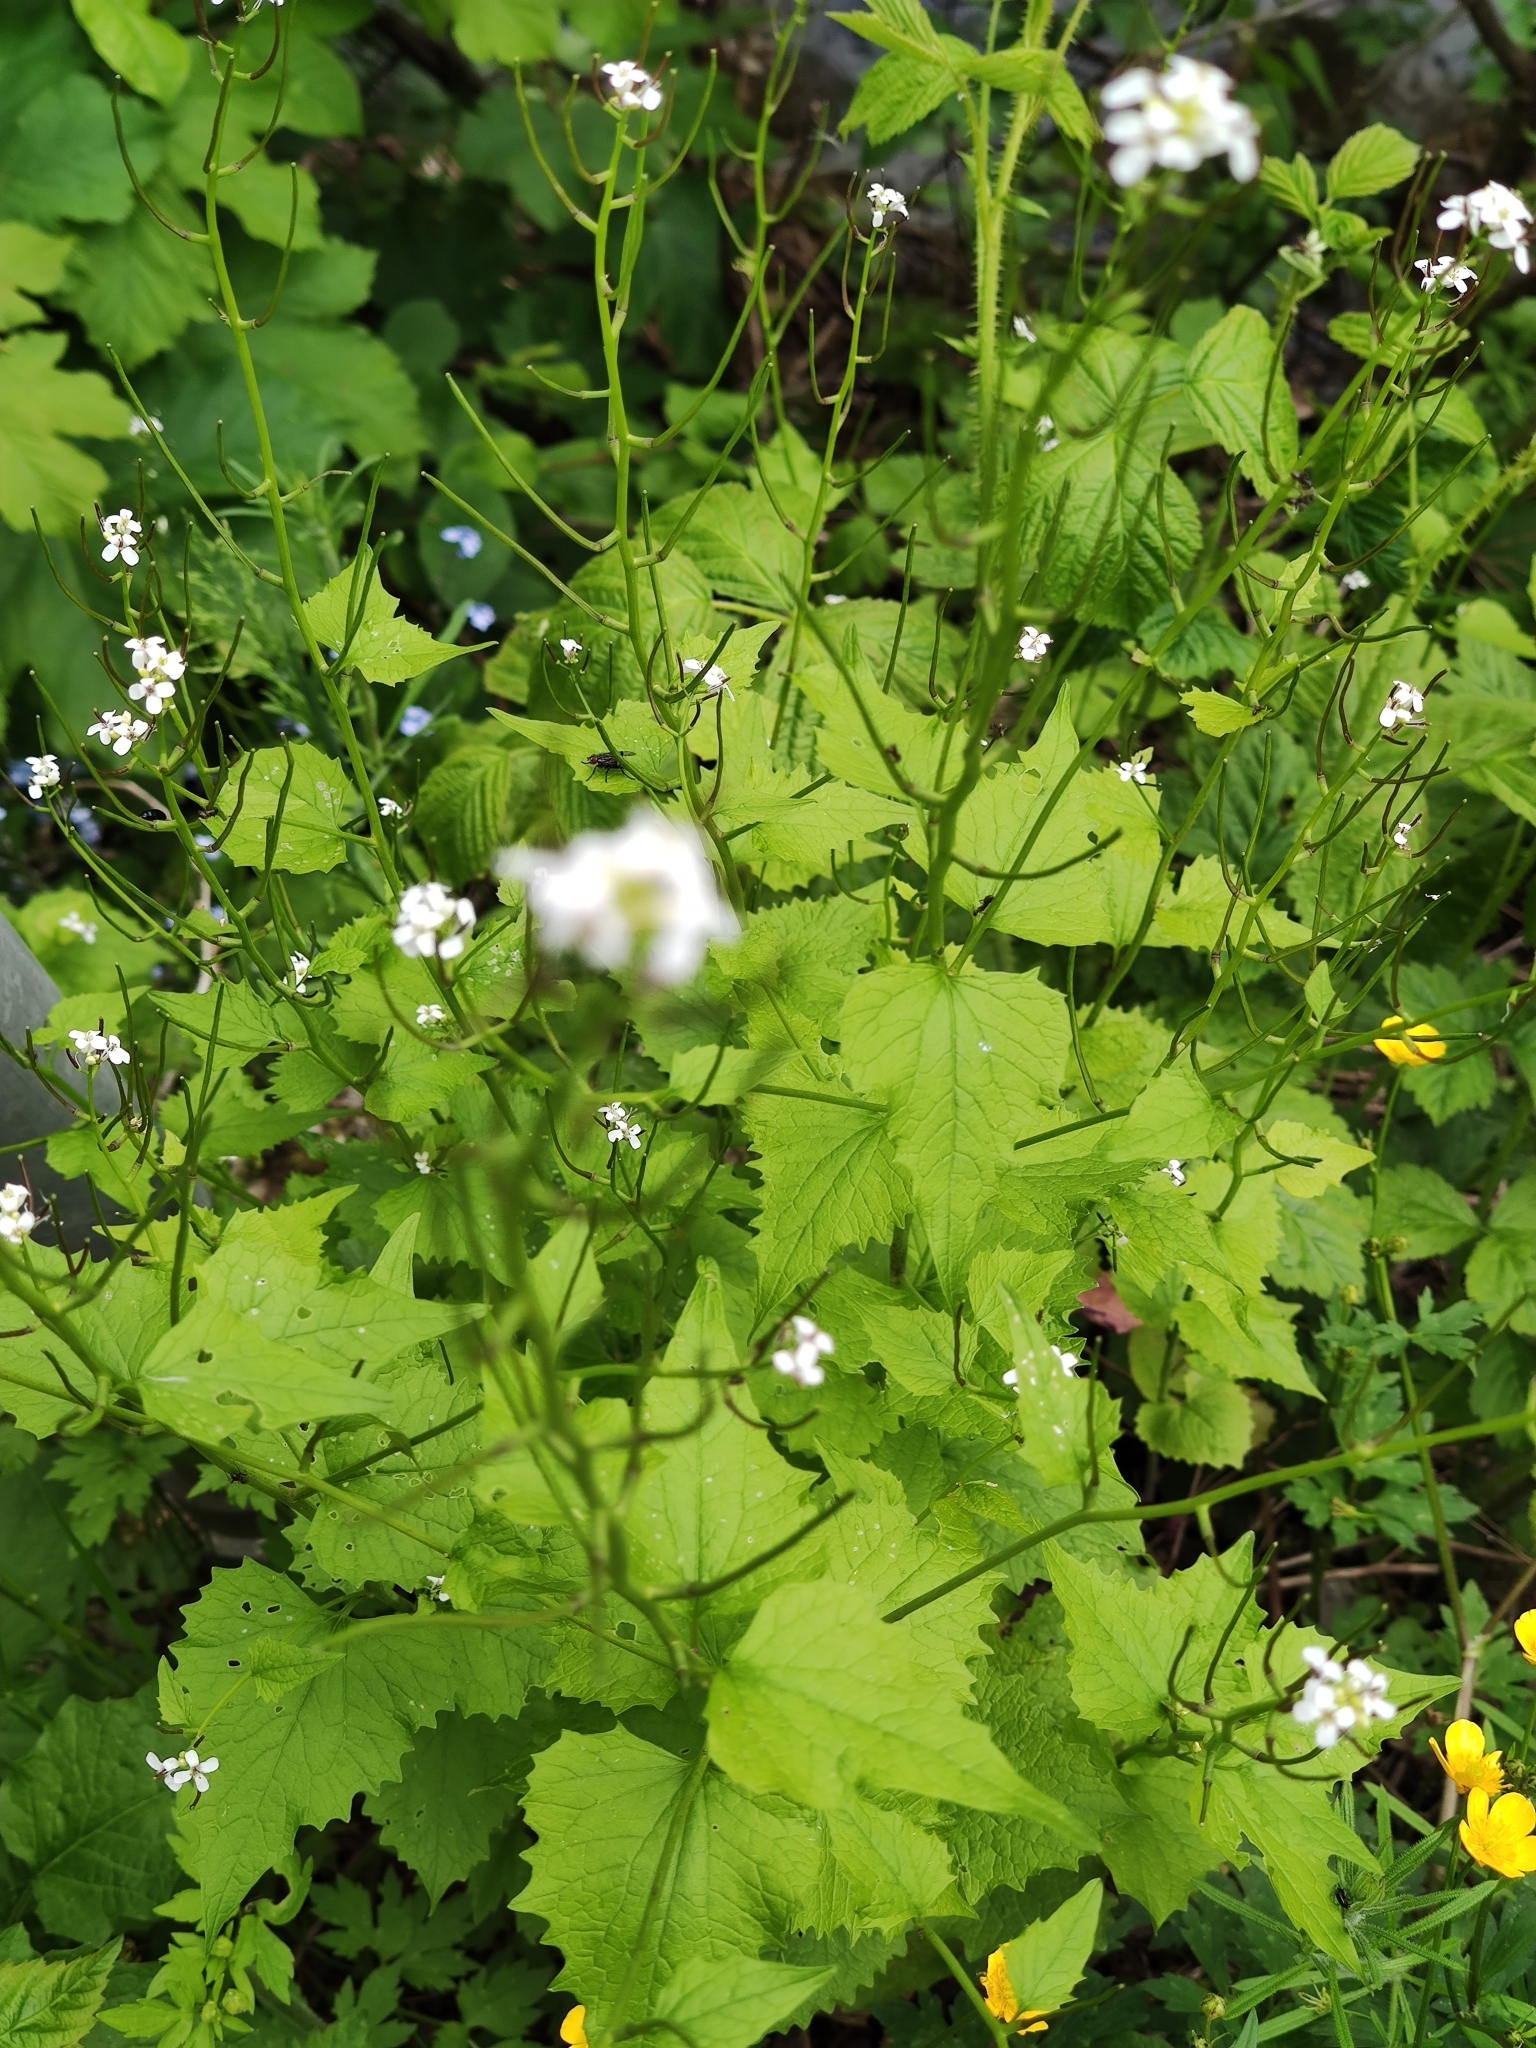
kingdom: Plantae
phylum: Tracheophyta
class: Magnoliopsida
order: Brassicales
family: Brassicaceae
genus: Alliaria
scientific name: Alliaria petiolata
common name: Garlic mustard
